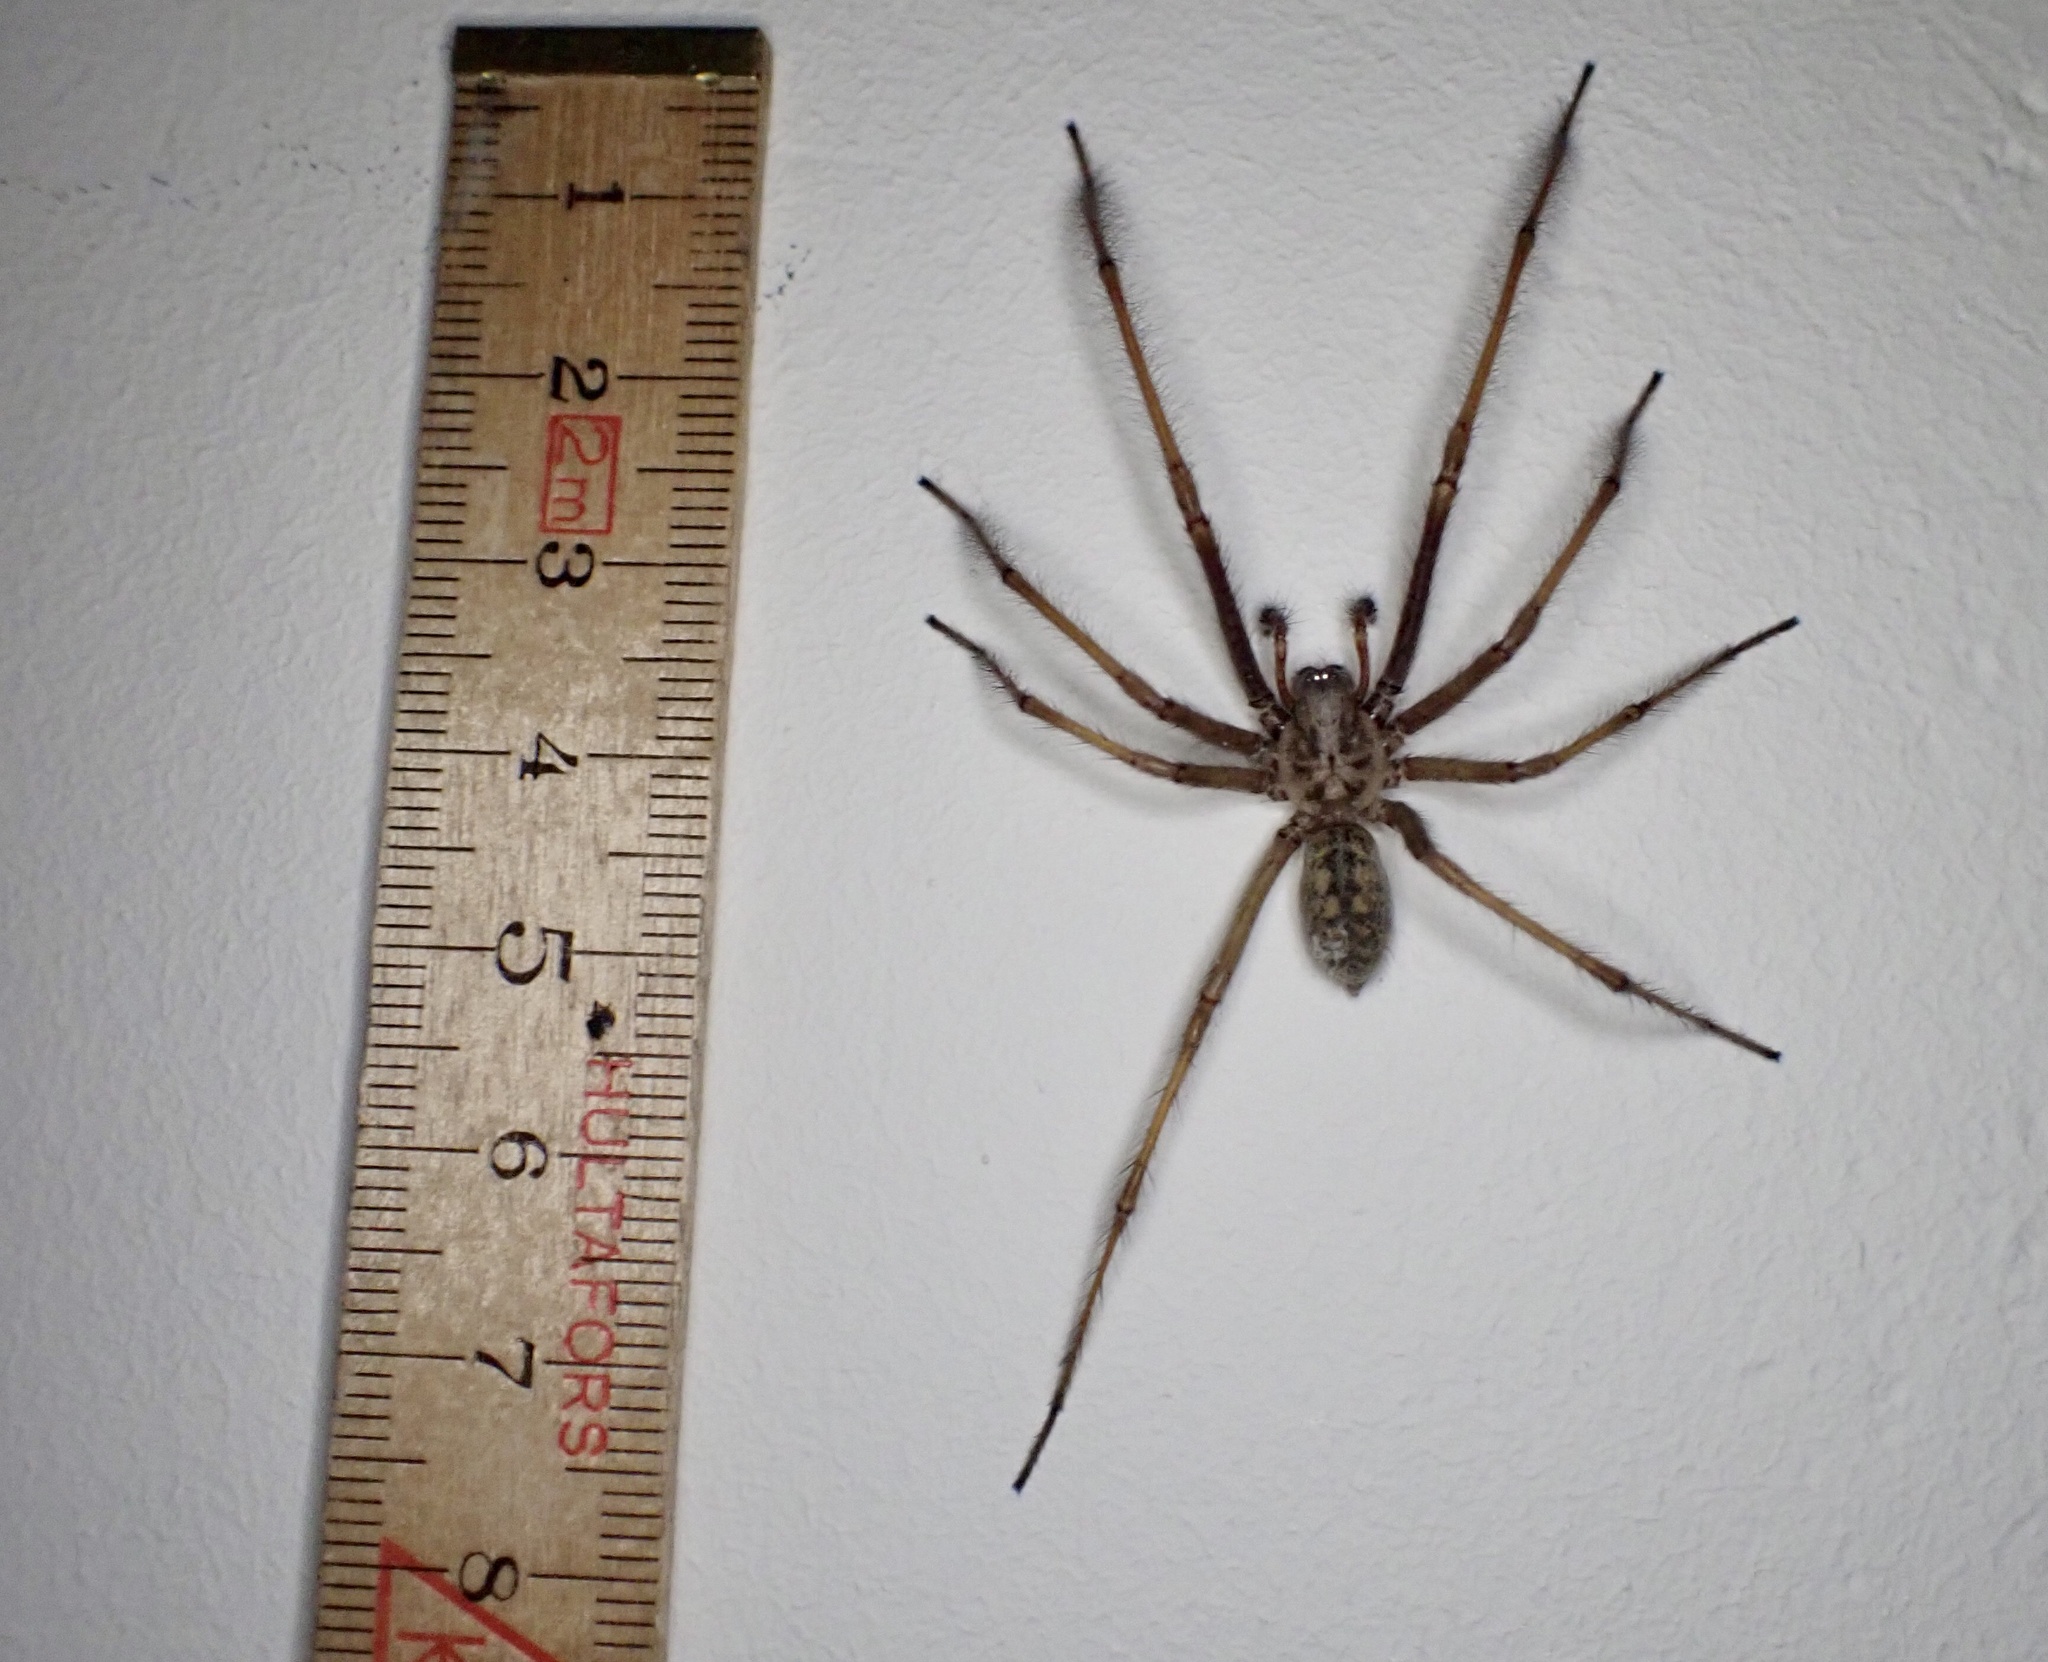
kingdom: Animalia
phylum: Arthropoda
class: Arachnida
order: Araneae
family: Agelenidae
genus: Eratigena
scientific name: Eratigena atrica
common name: Giant house spider
